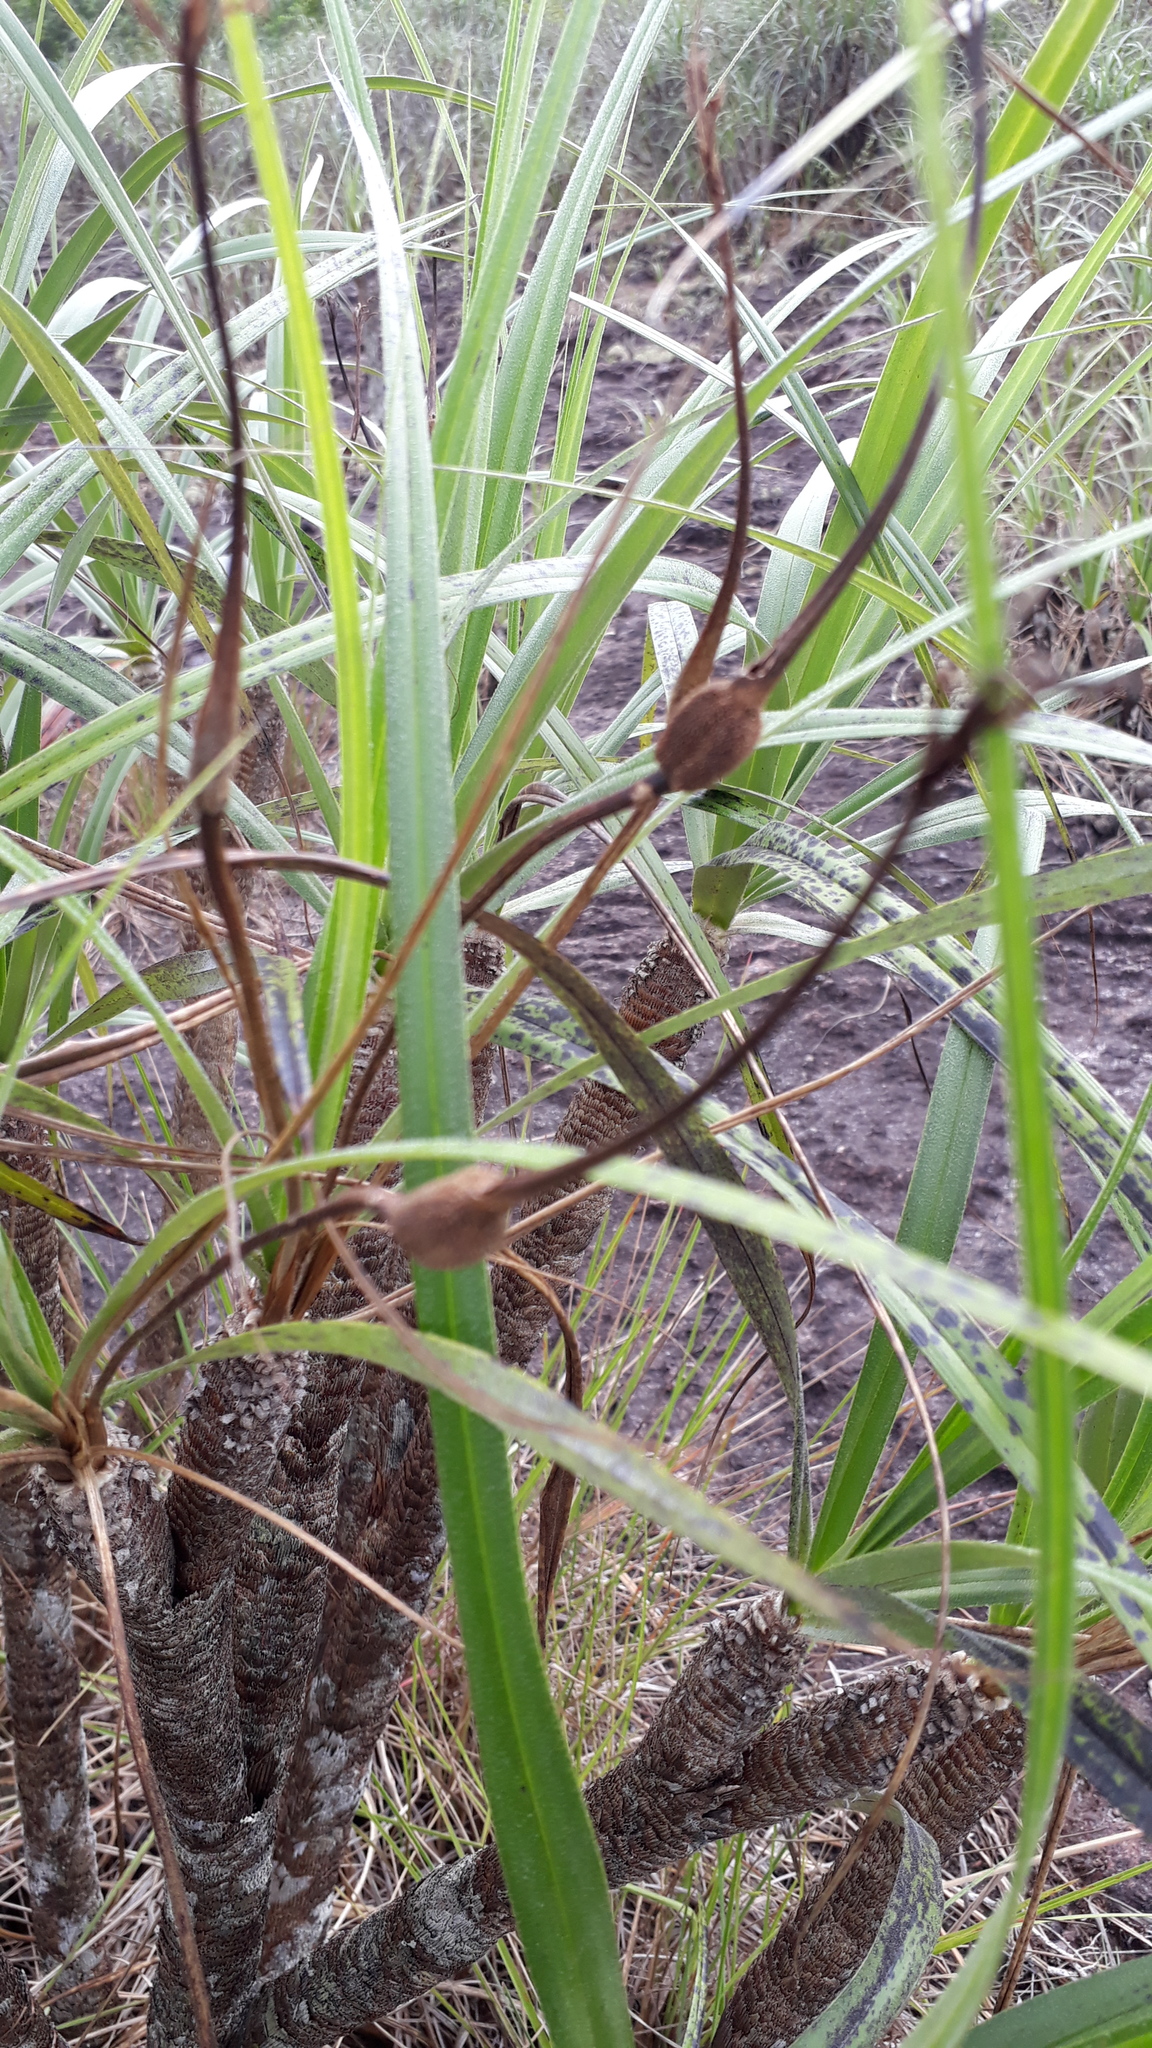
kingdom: Plantae
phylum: Tracheophyta
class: Liliopsida
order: Pandanales
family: Velloziaceae
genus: Vellozia
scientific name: Vellozia tubiflora
